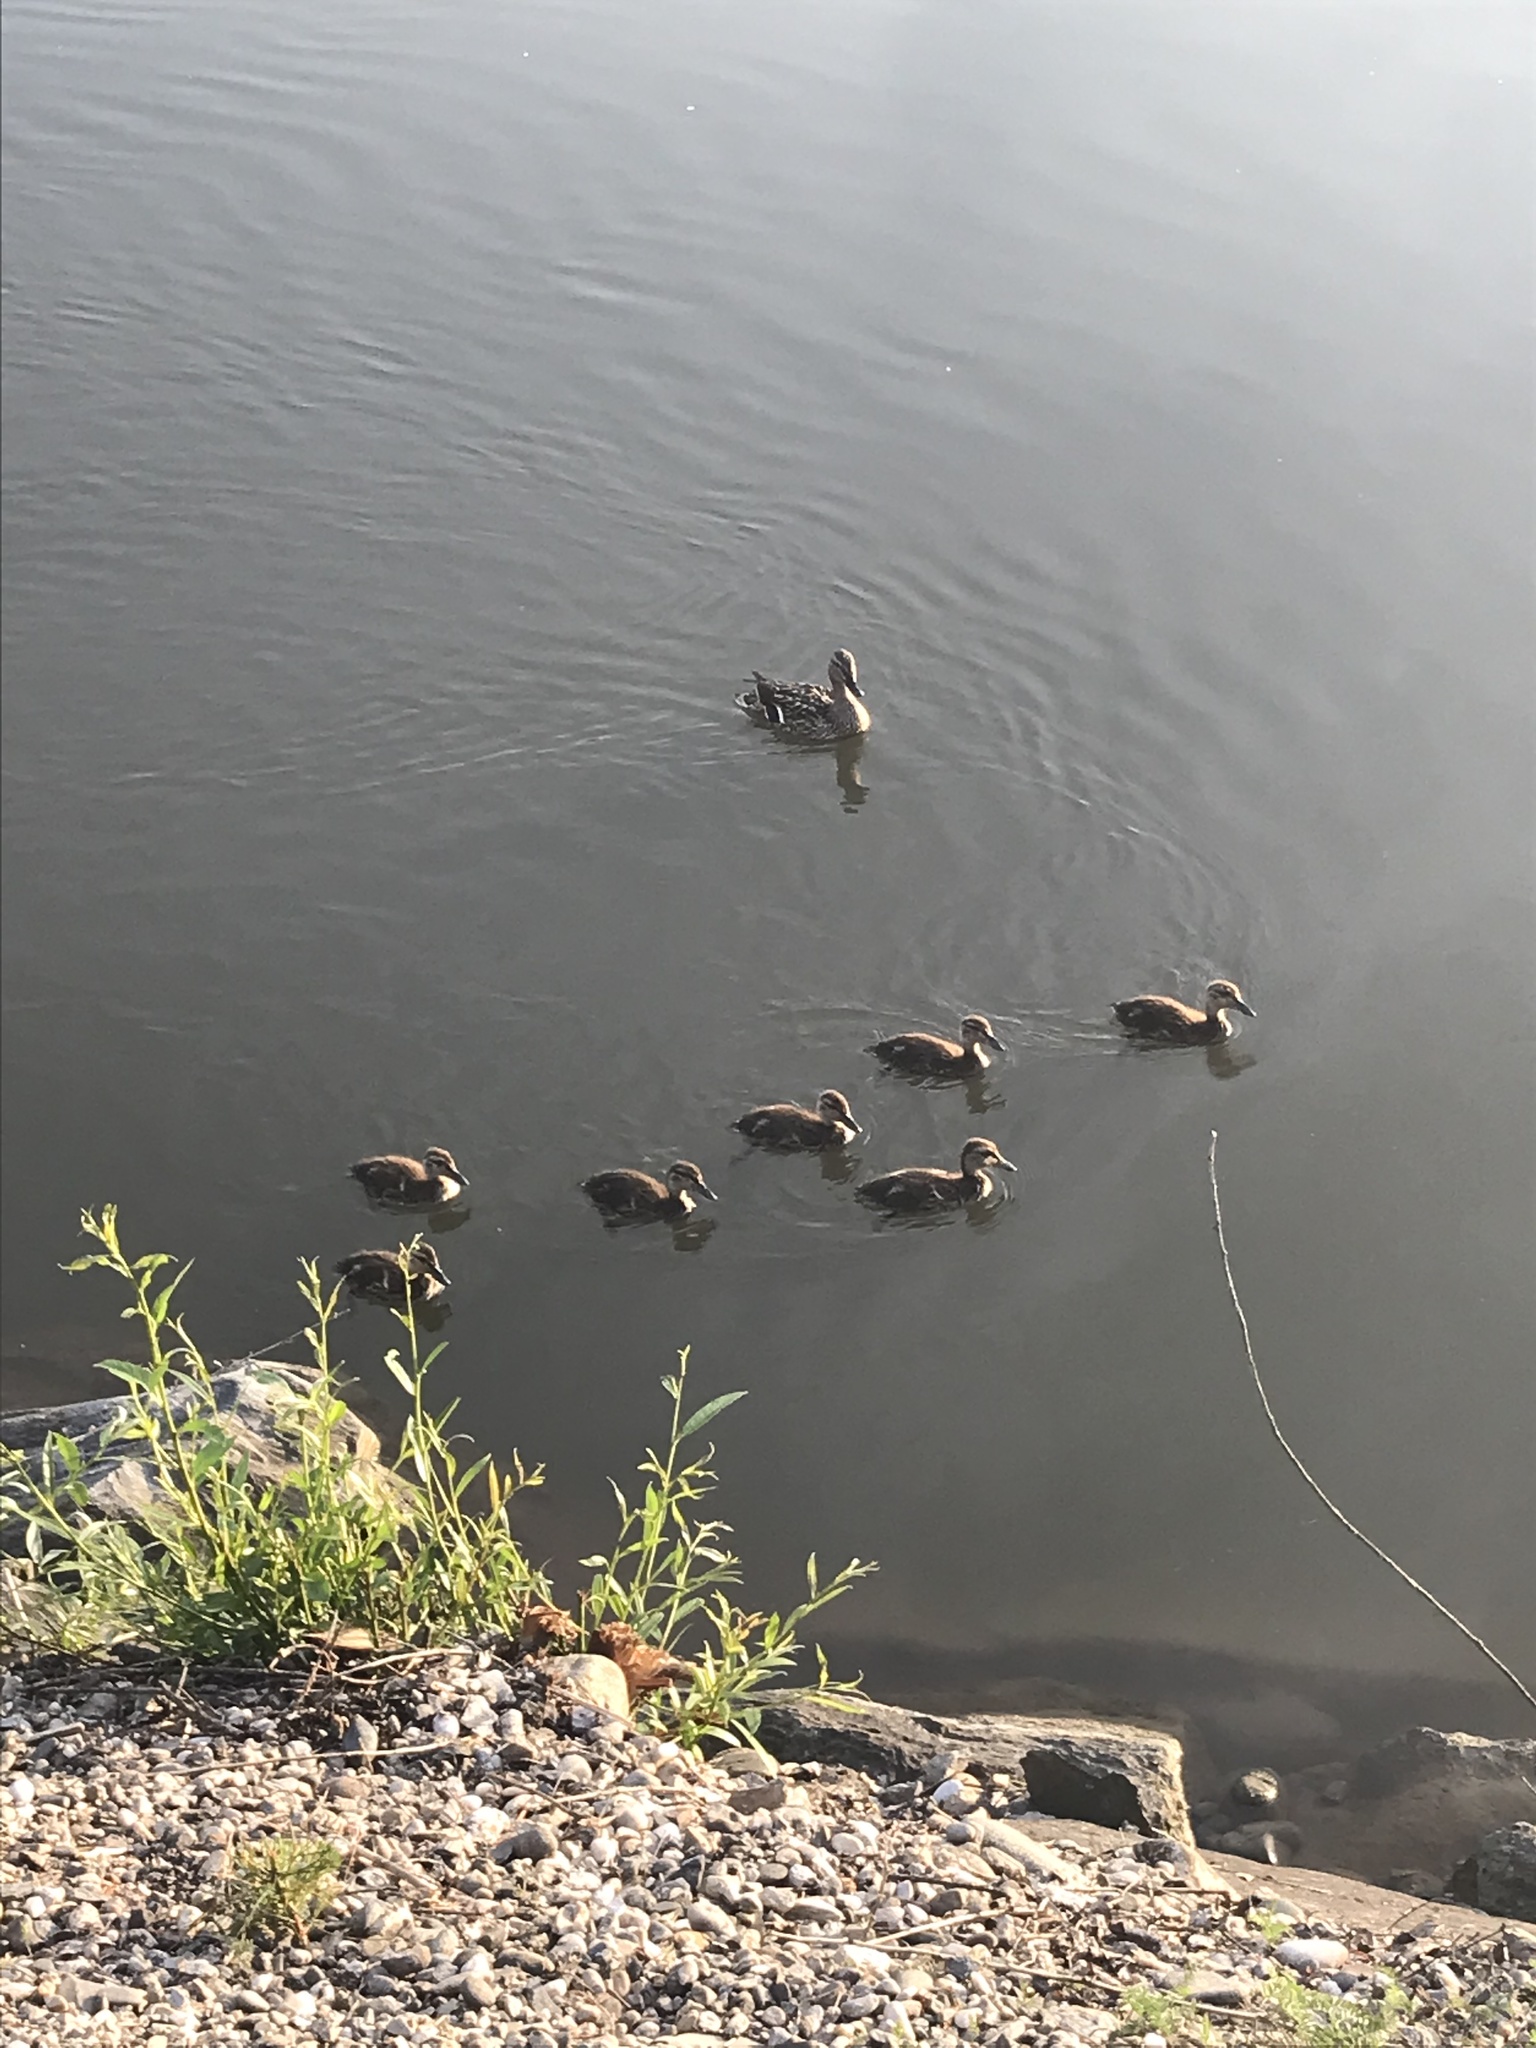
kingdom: Animalia
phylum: Chordata
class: Aves
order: Anseriformes
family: Anatidae
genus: Anas
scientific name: Anas platyrhynchos
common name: Mallard
